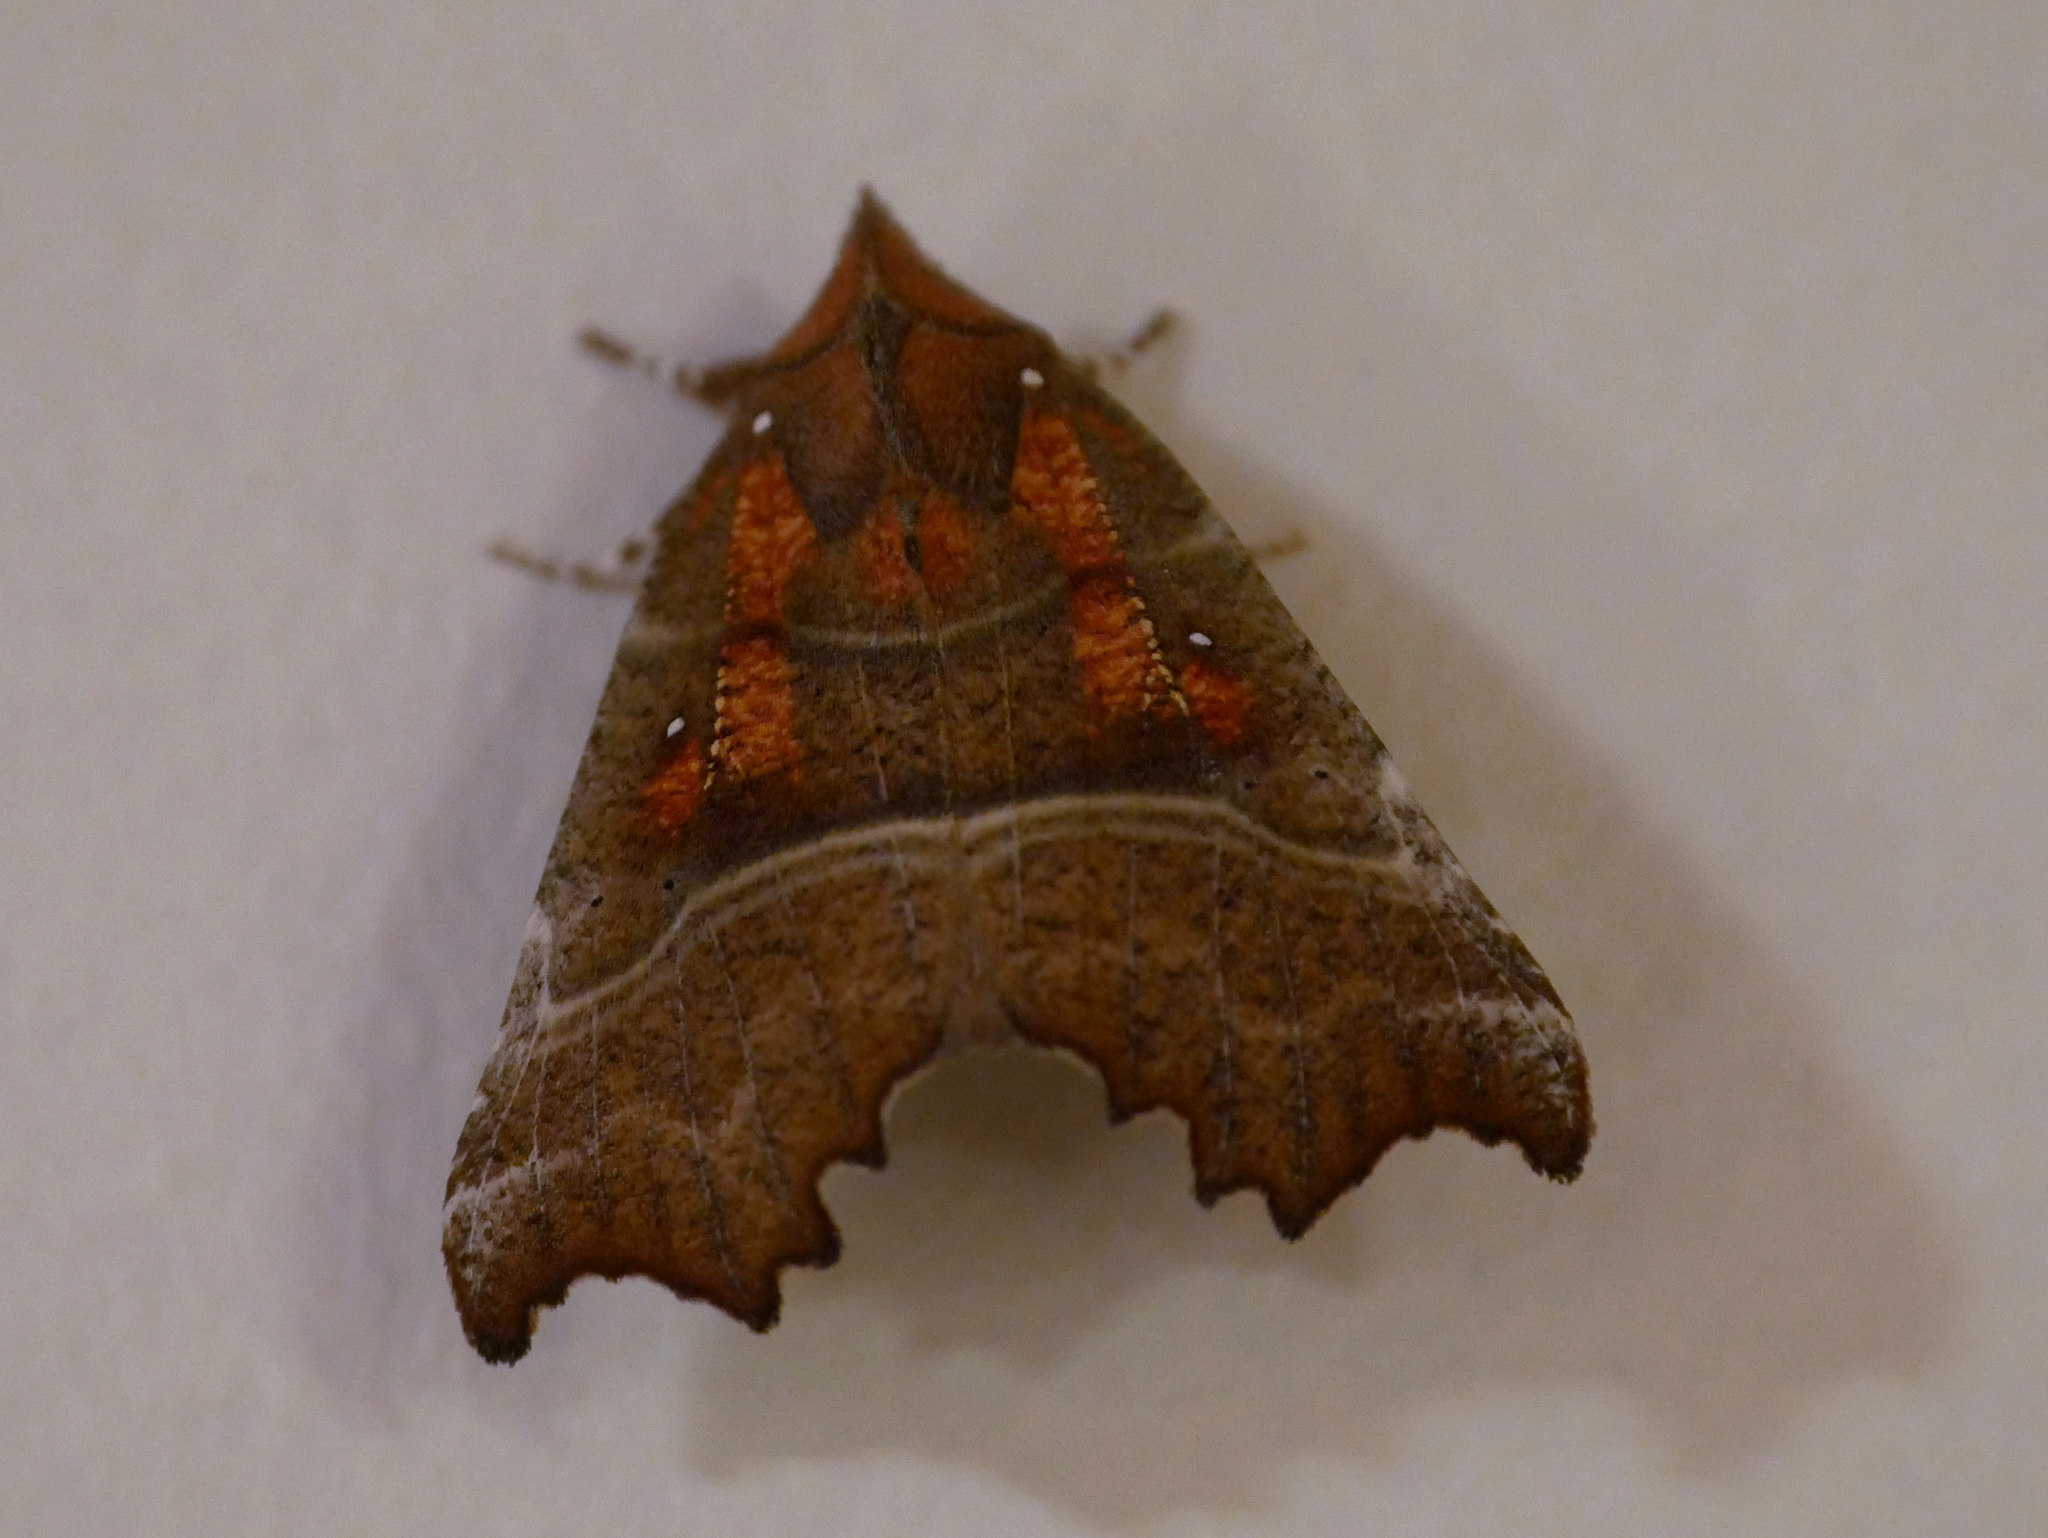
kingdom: Animalia
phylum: Arthropoda
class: Insecta
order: Lepidoptera
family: Erebidae
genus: Scoliopteryx
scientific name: Scoliopteryx libatrix
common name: Herald
